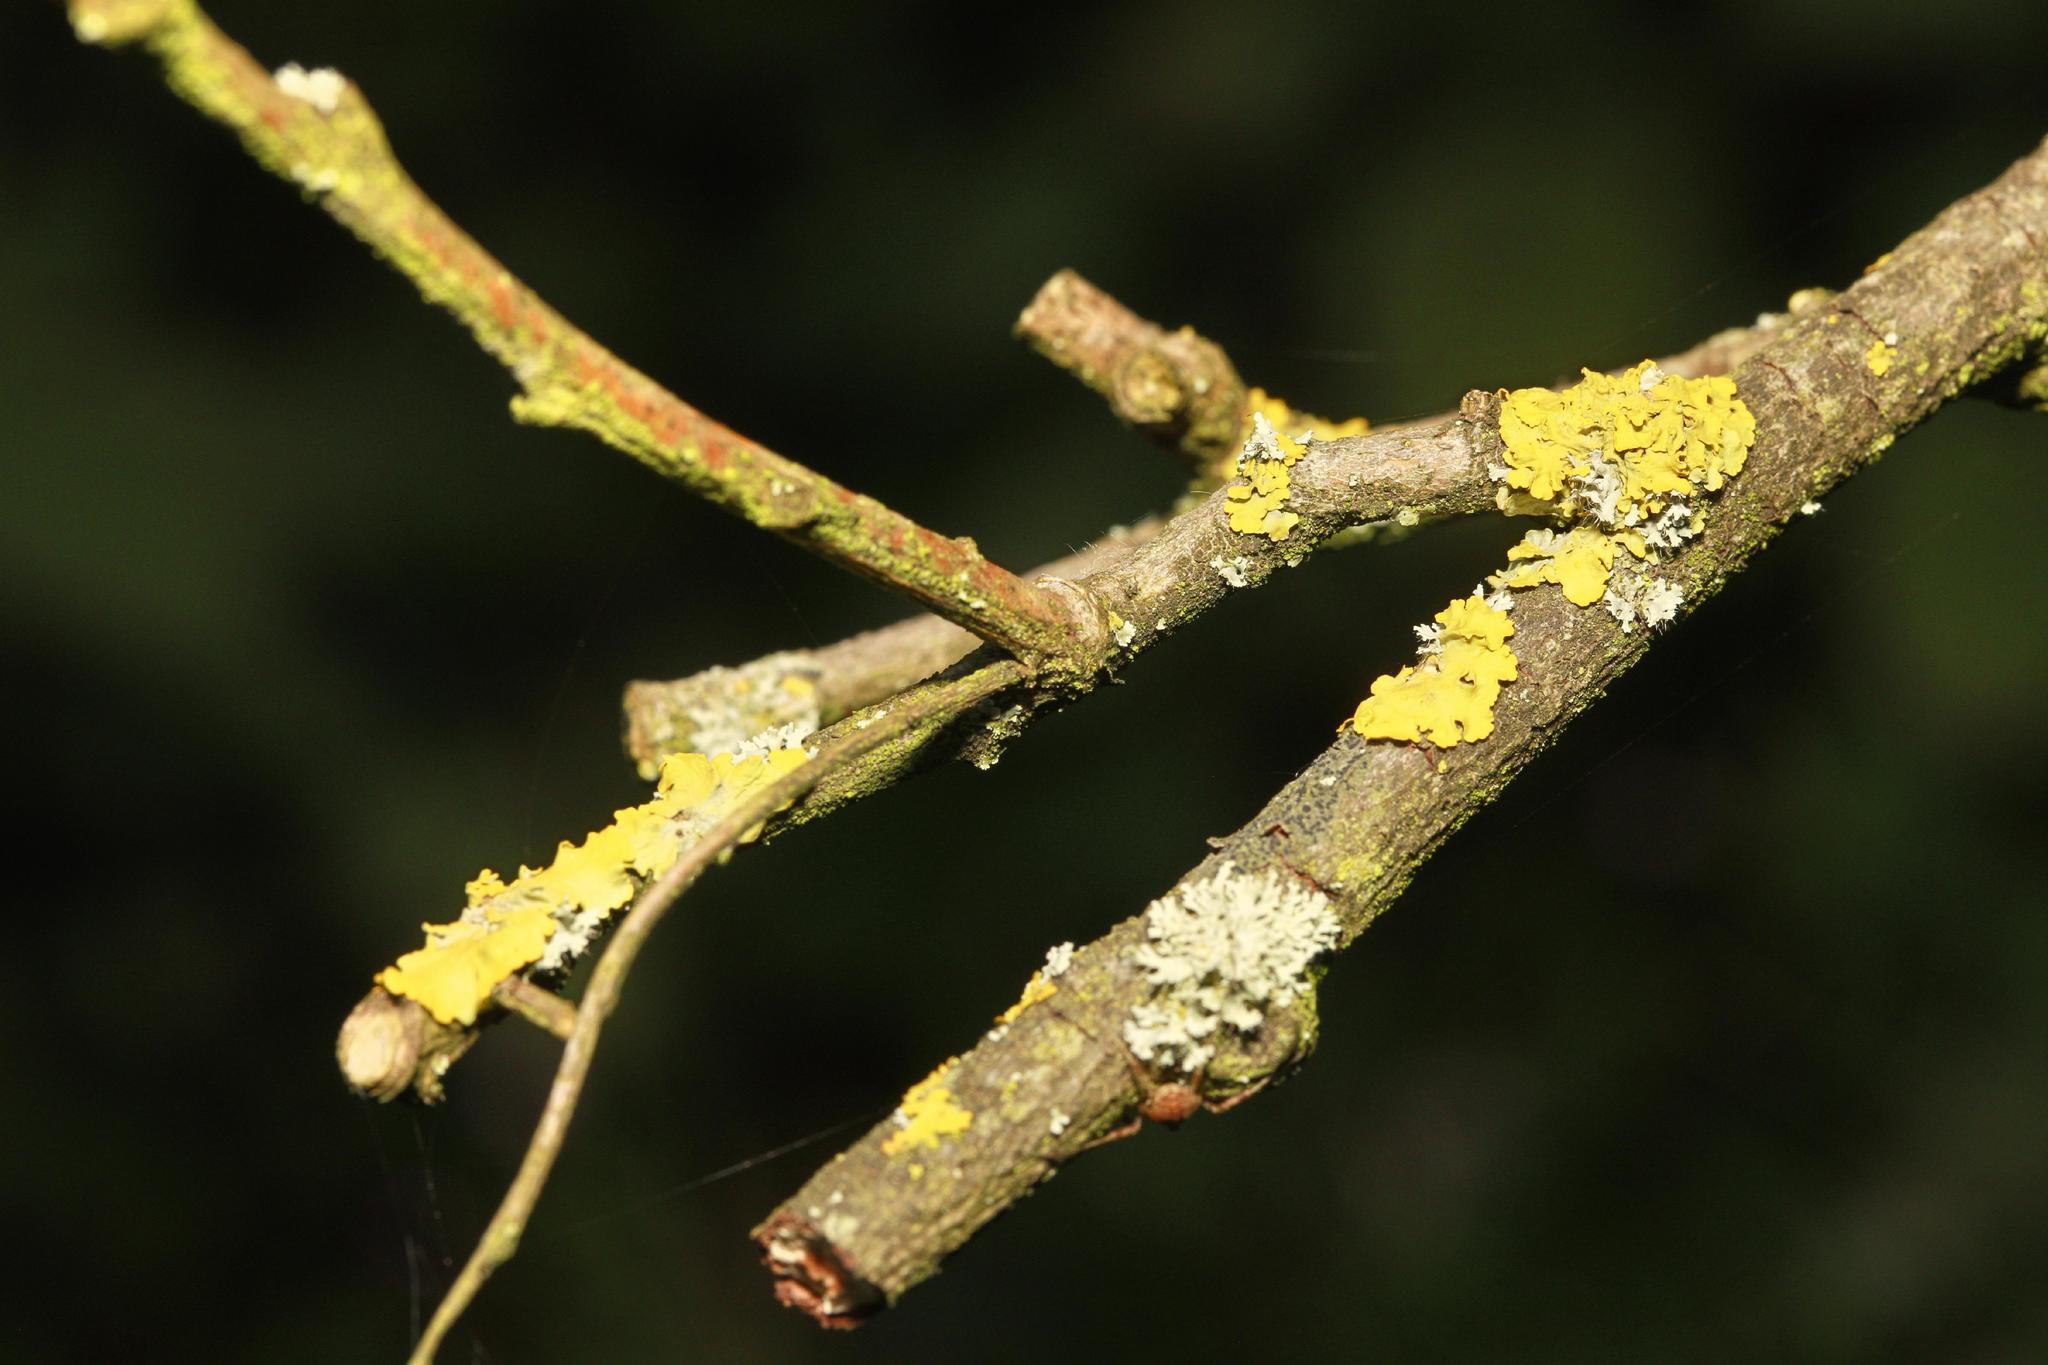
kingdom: Fungi
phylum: Ascomycota
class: Lecanoromycetes
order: Teloschistales
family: Teloschistaceae
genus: Xanthoria
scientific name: Xanthoria parietina
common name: Common orange lichen
